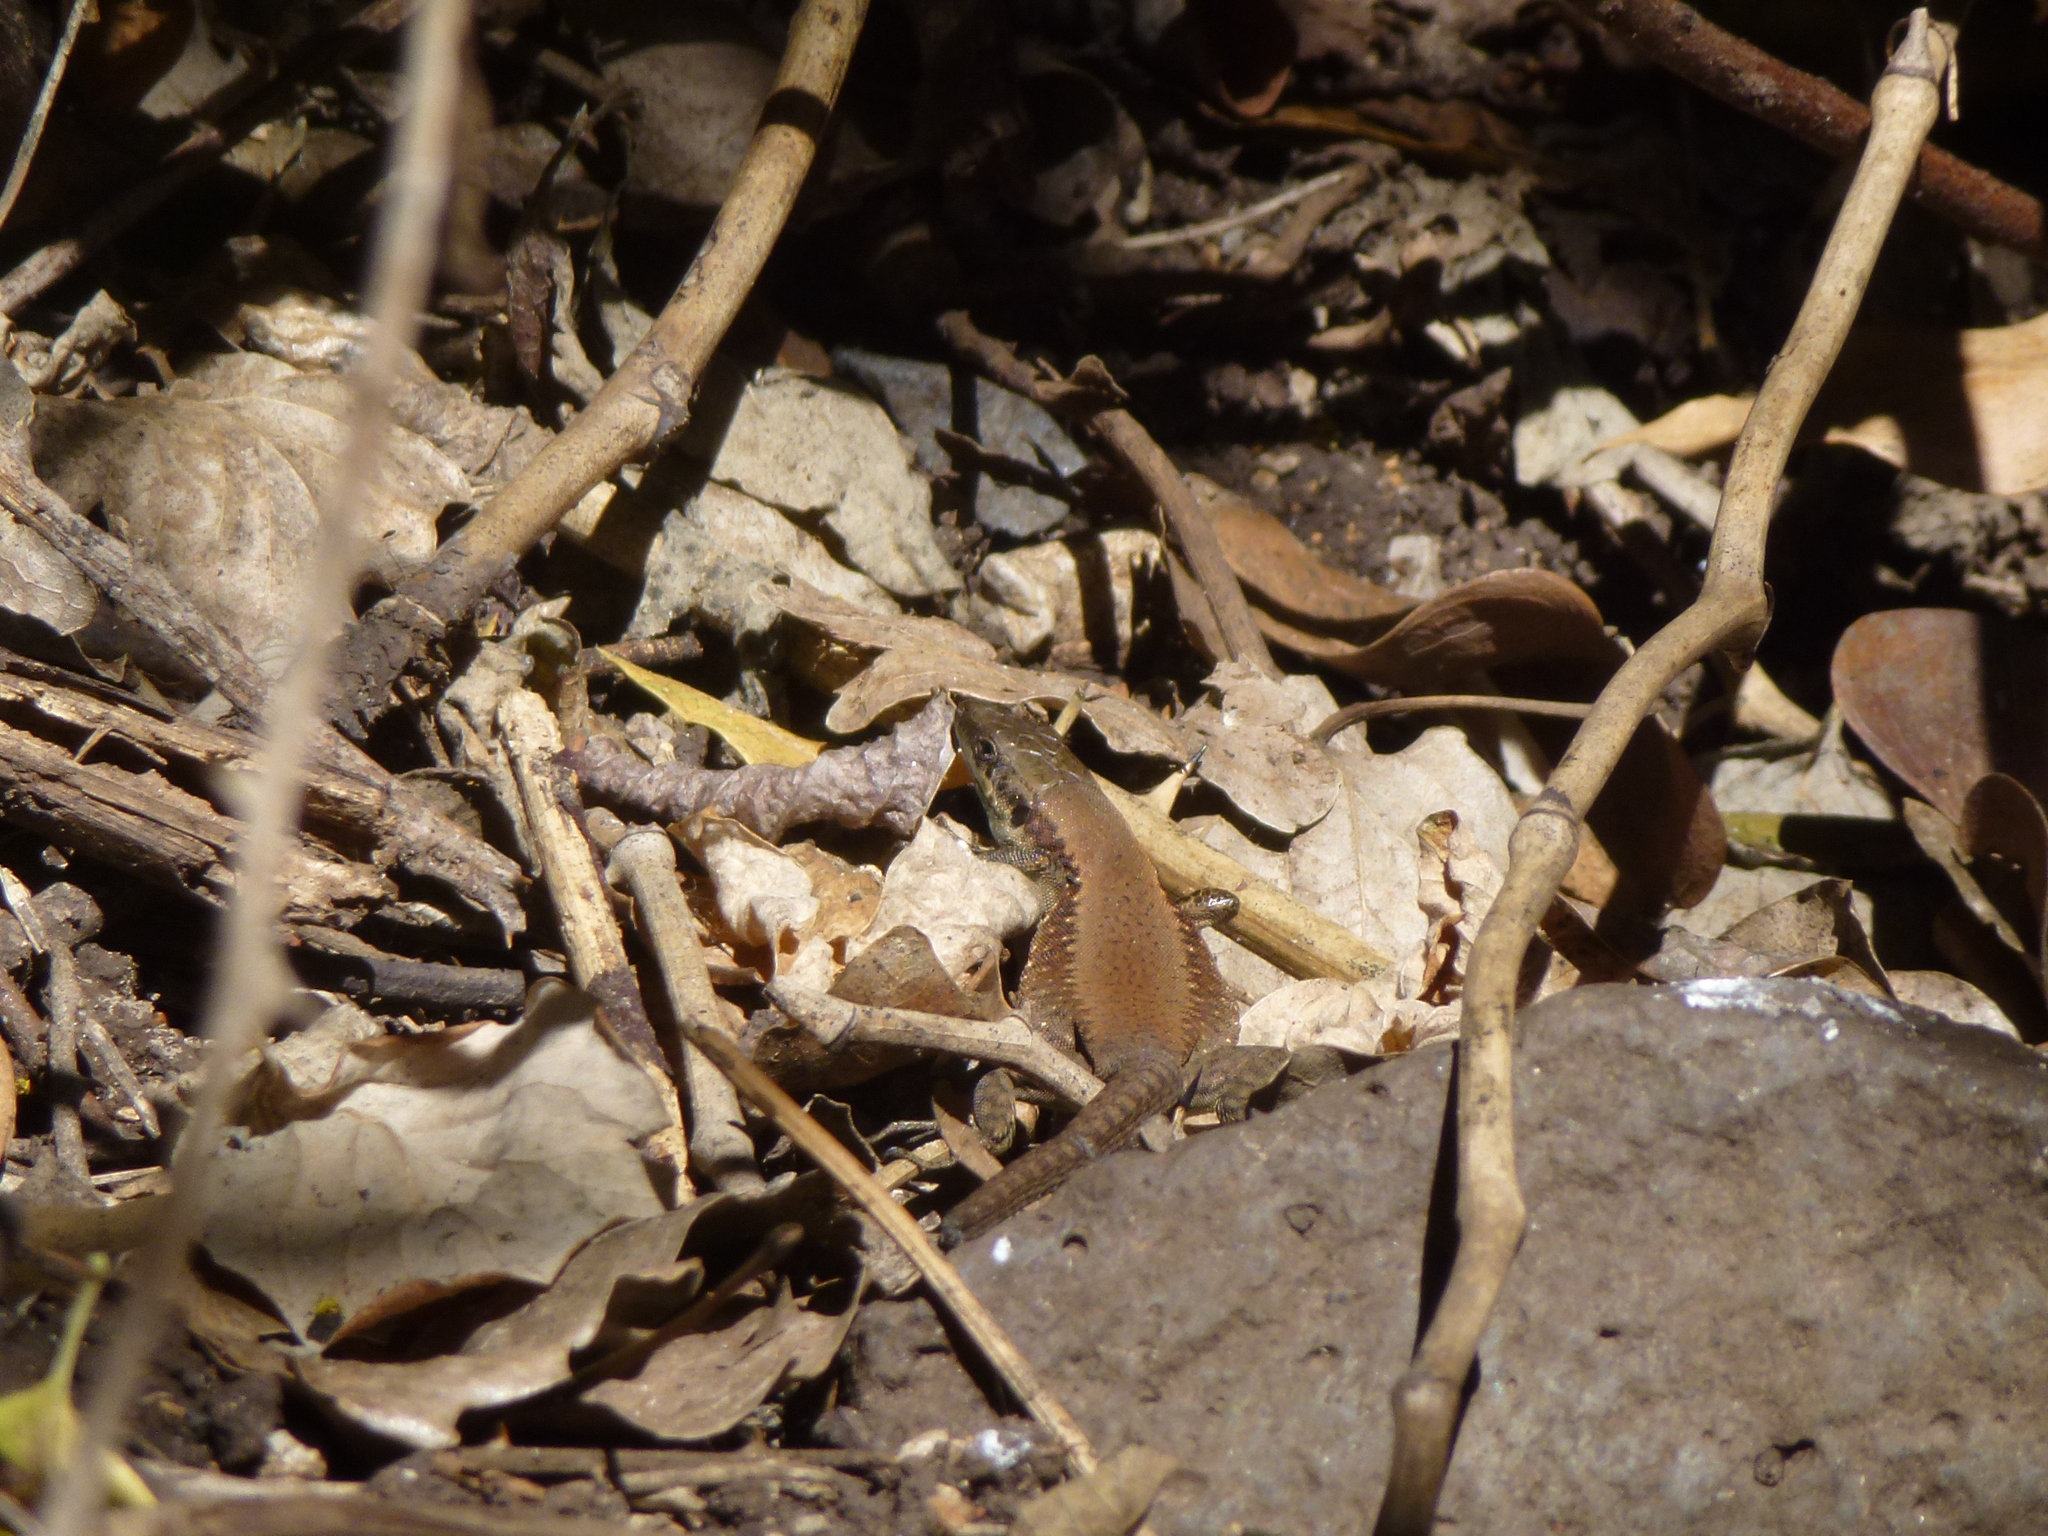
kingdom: Animalia
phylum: Chordata
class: Squamata
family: Lacertidae
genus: Phoenicolacerta
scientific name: Phoenicolacerta laevis
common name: Lebanon lizard
